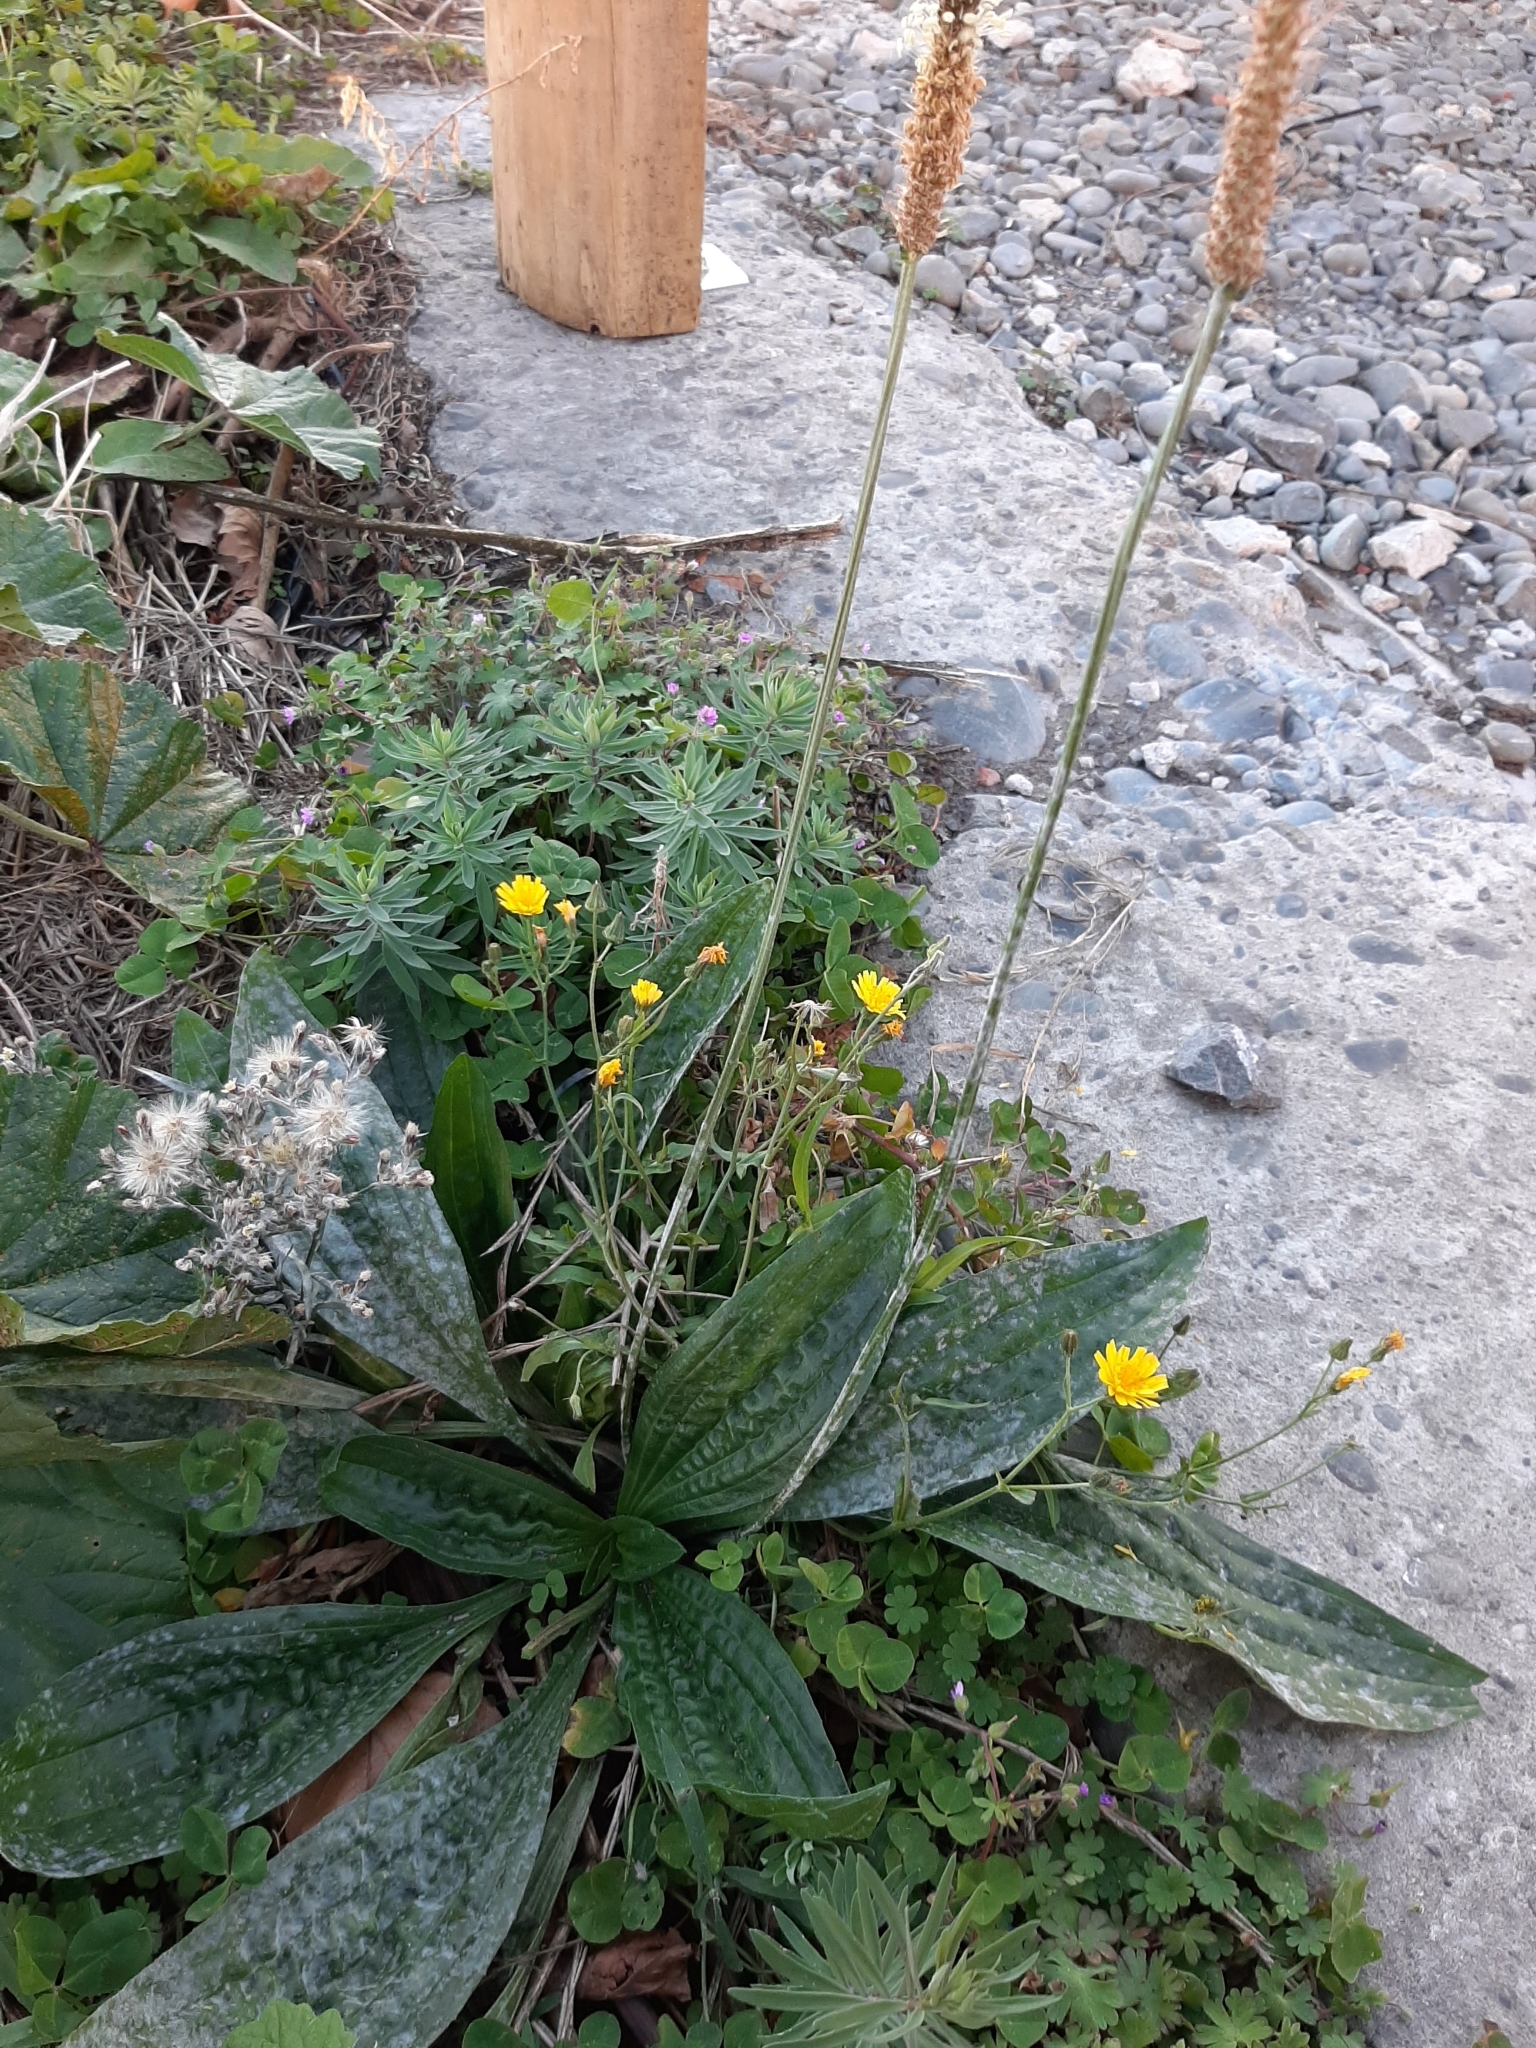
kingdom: Plantae
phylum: Tracheophyta
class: Magnoliopsida
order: Lamiales
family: Plantaginaceae
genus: Plantago
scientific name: Plantago lanceolata
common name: Ribwort plantain
